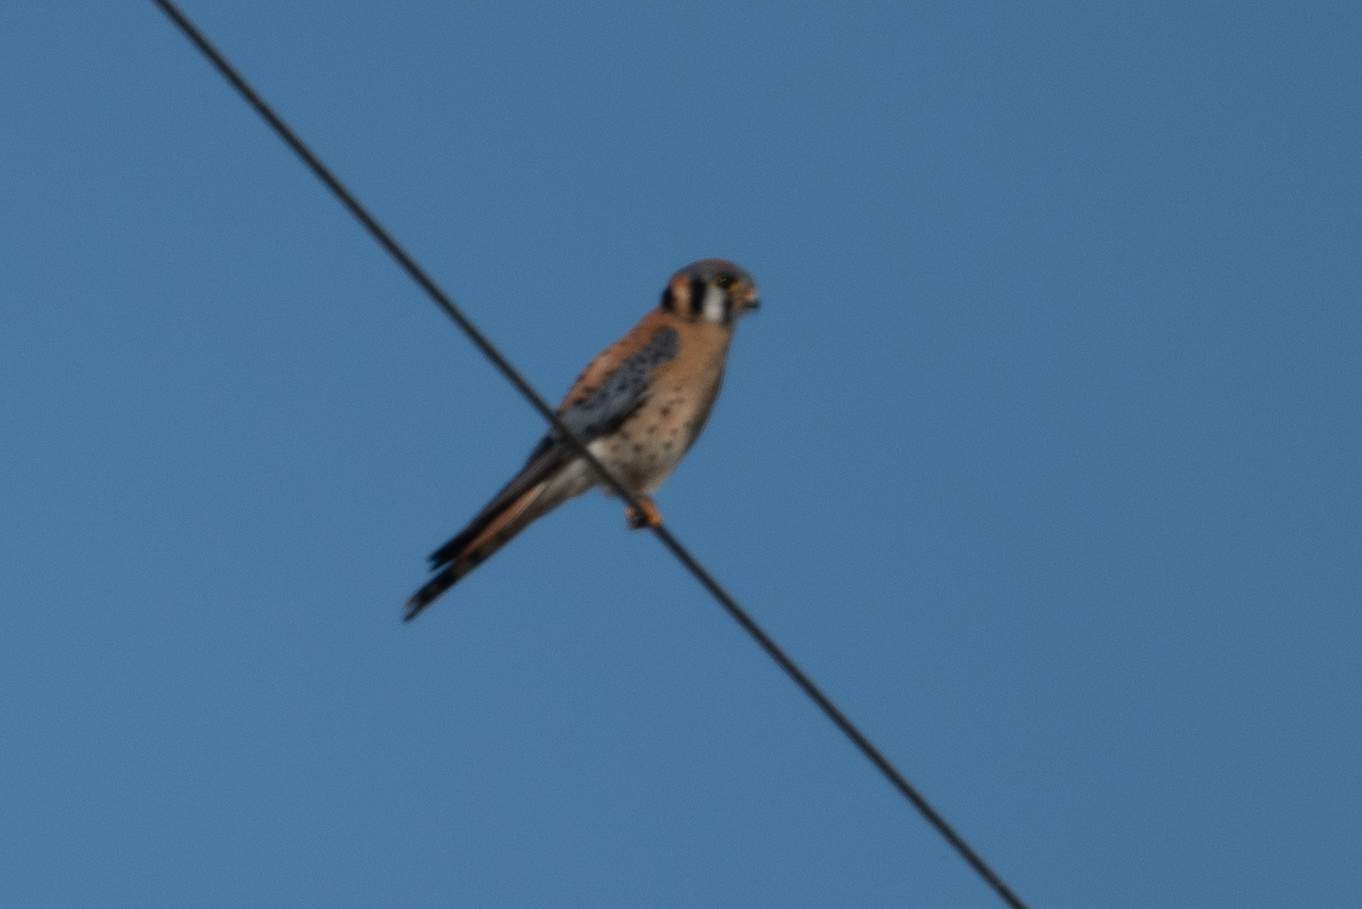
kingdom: Animalia
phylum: Chordata
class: Aves
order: Falconiformes
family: Falconidae
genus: Falco
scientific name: Falco sparverius
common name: American kestrel
